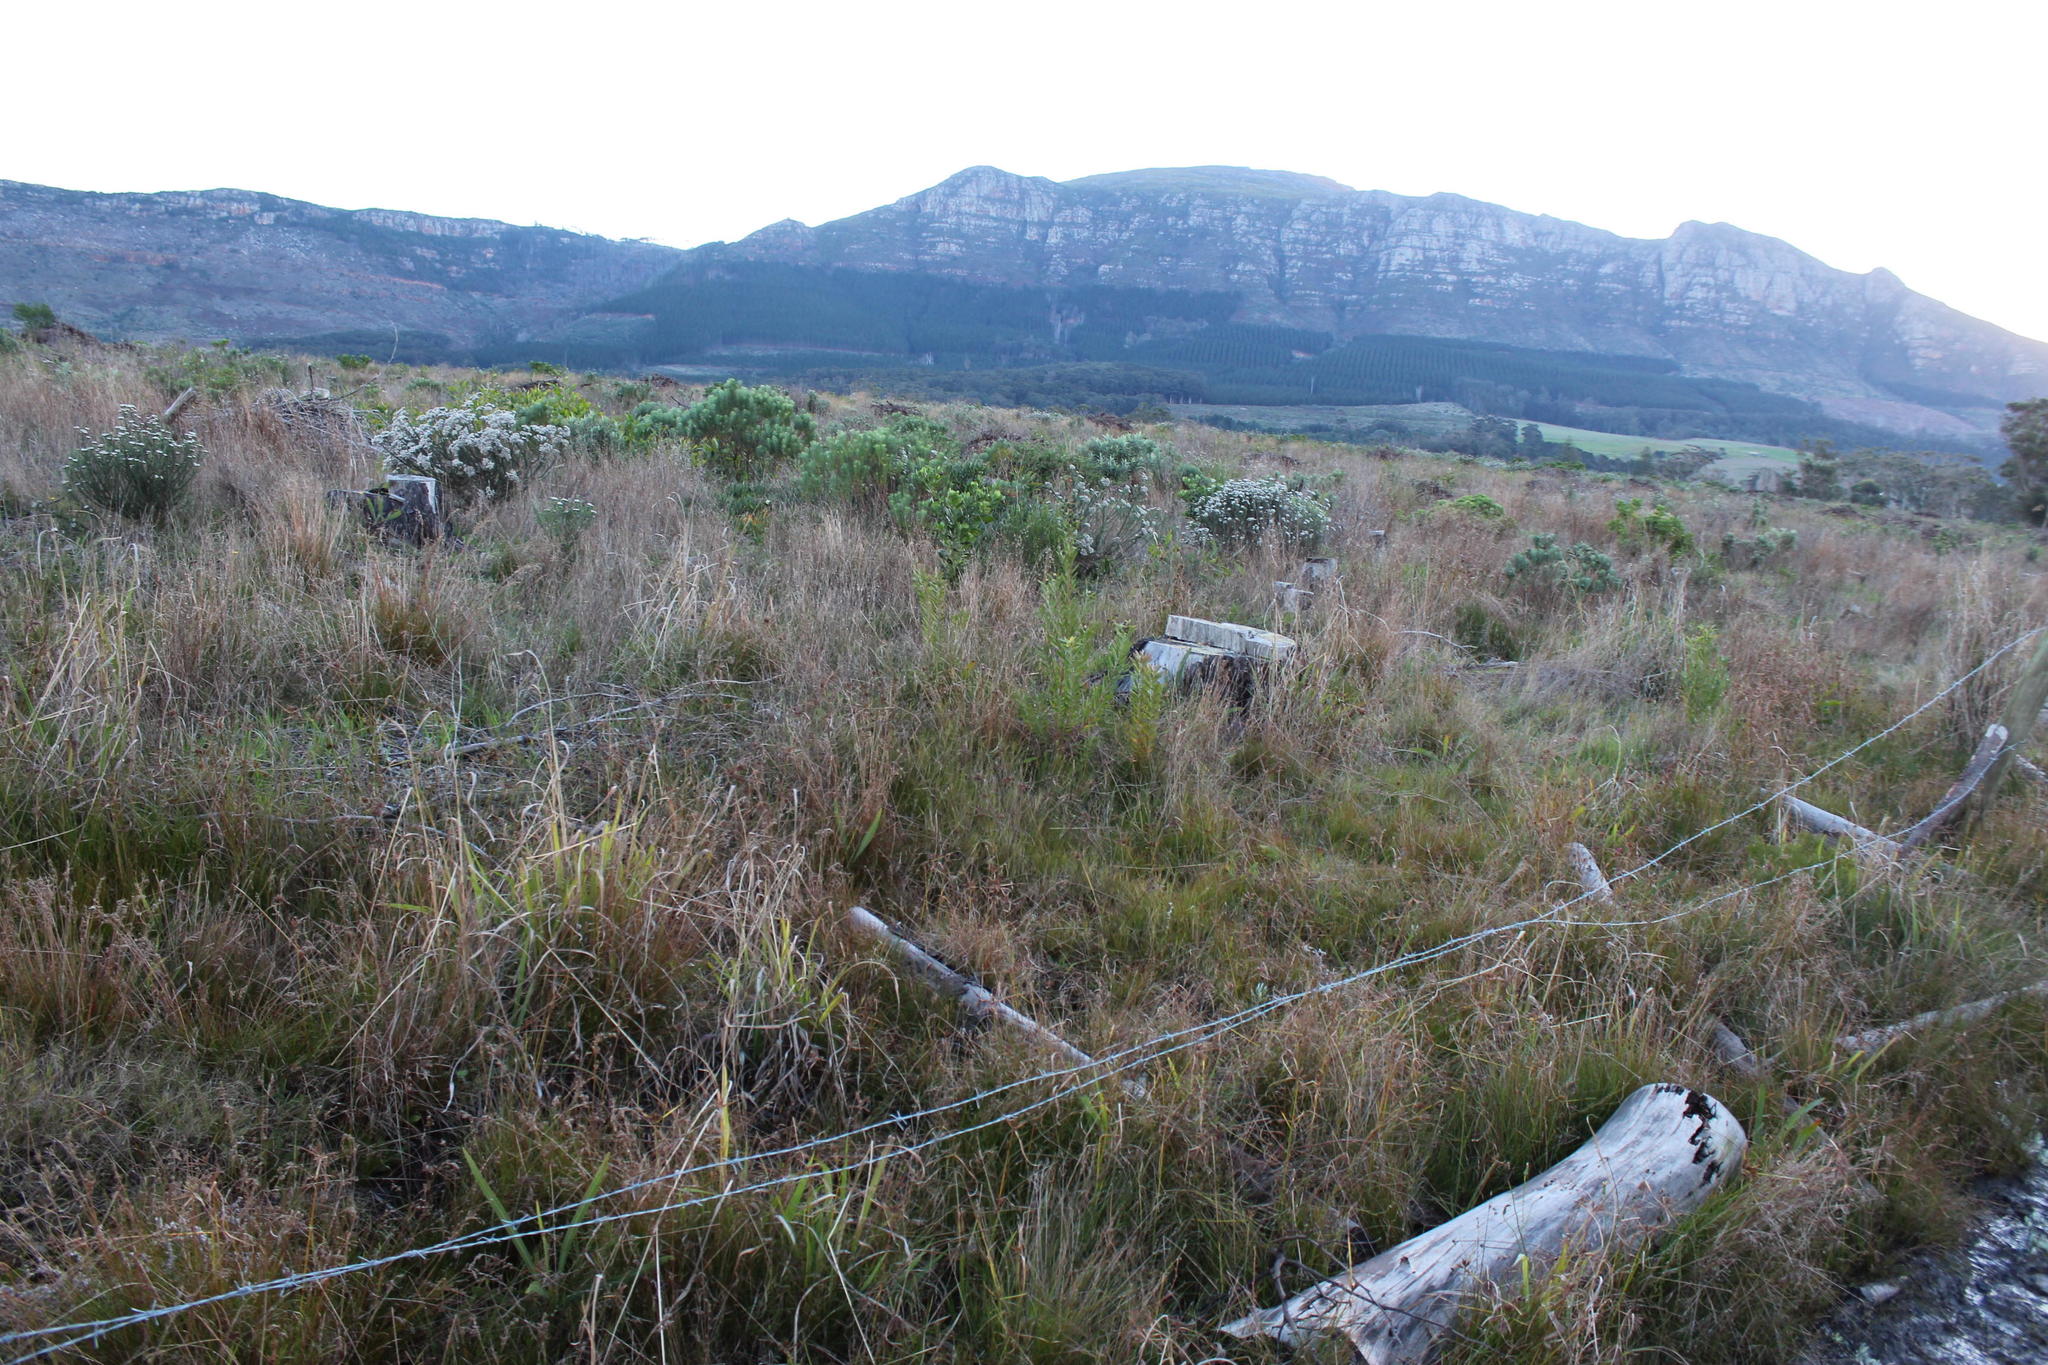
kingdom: Plantae
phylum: Tracheophyta
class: Magnoliopsida
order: Proteales
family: Proteaceae
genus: Leucadendron
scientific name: Leucadendron macowanii
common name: Acacia-leaf conebush
